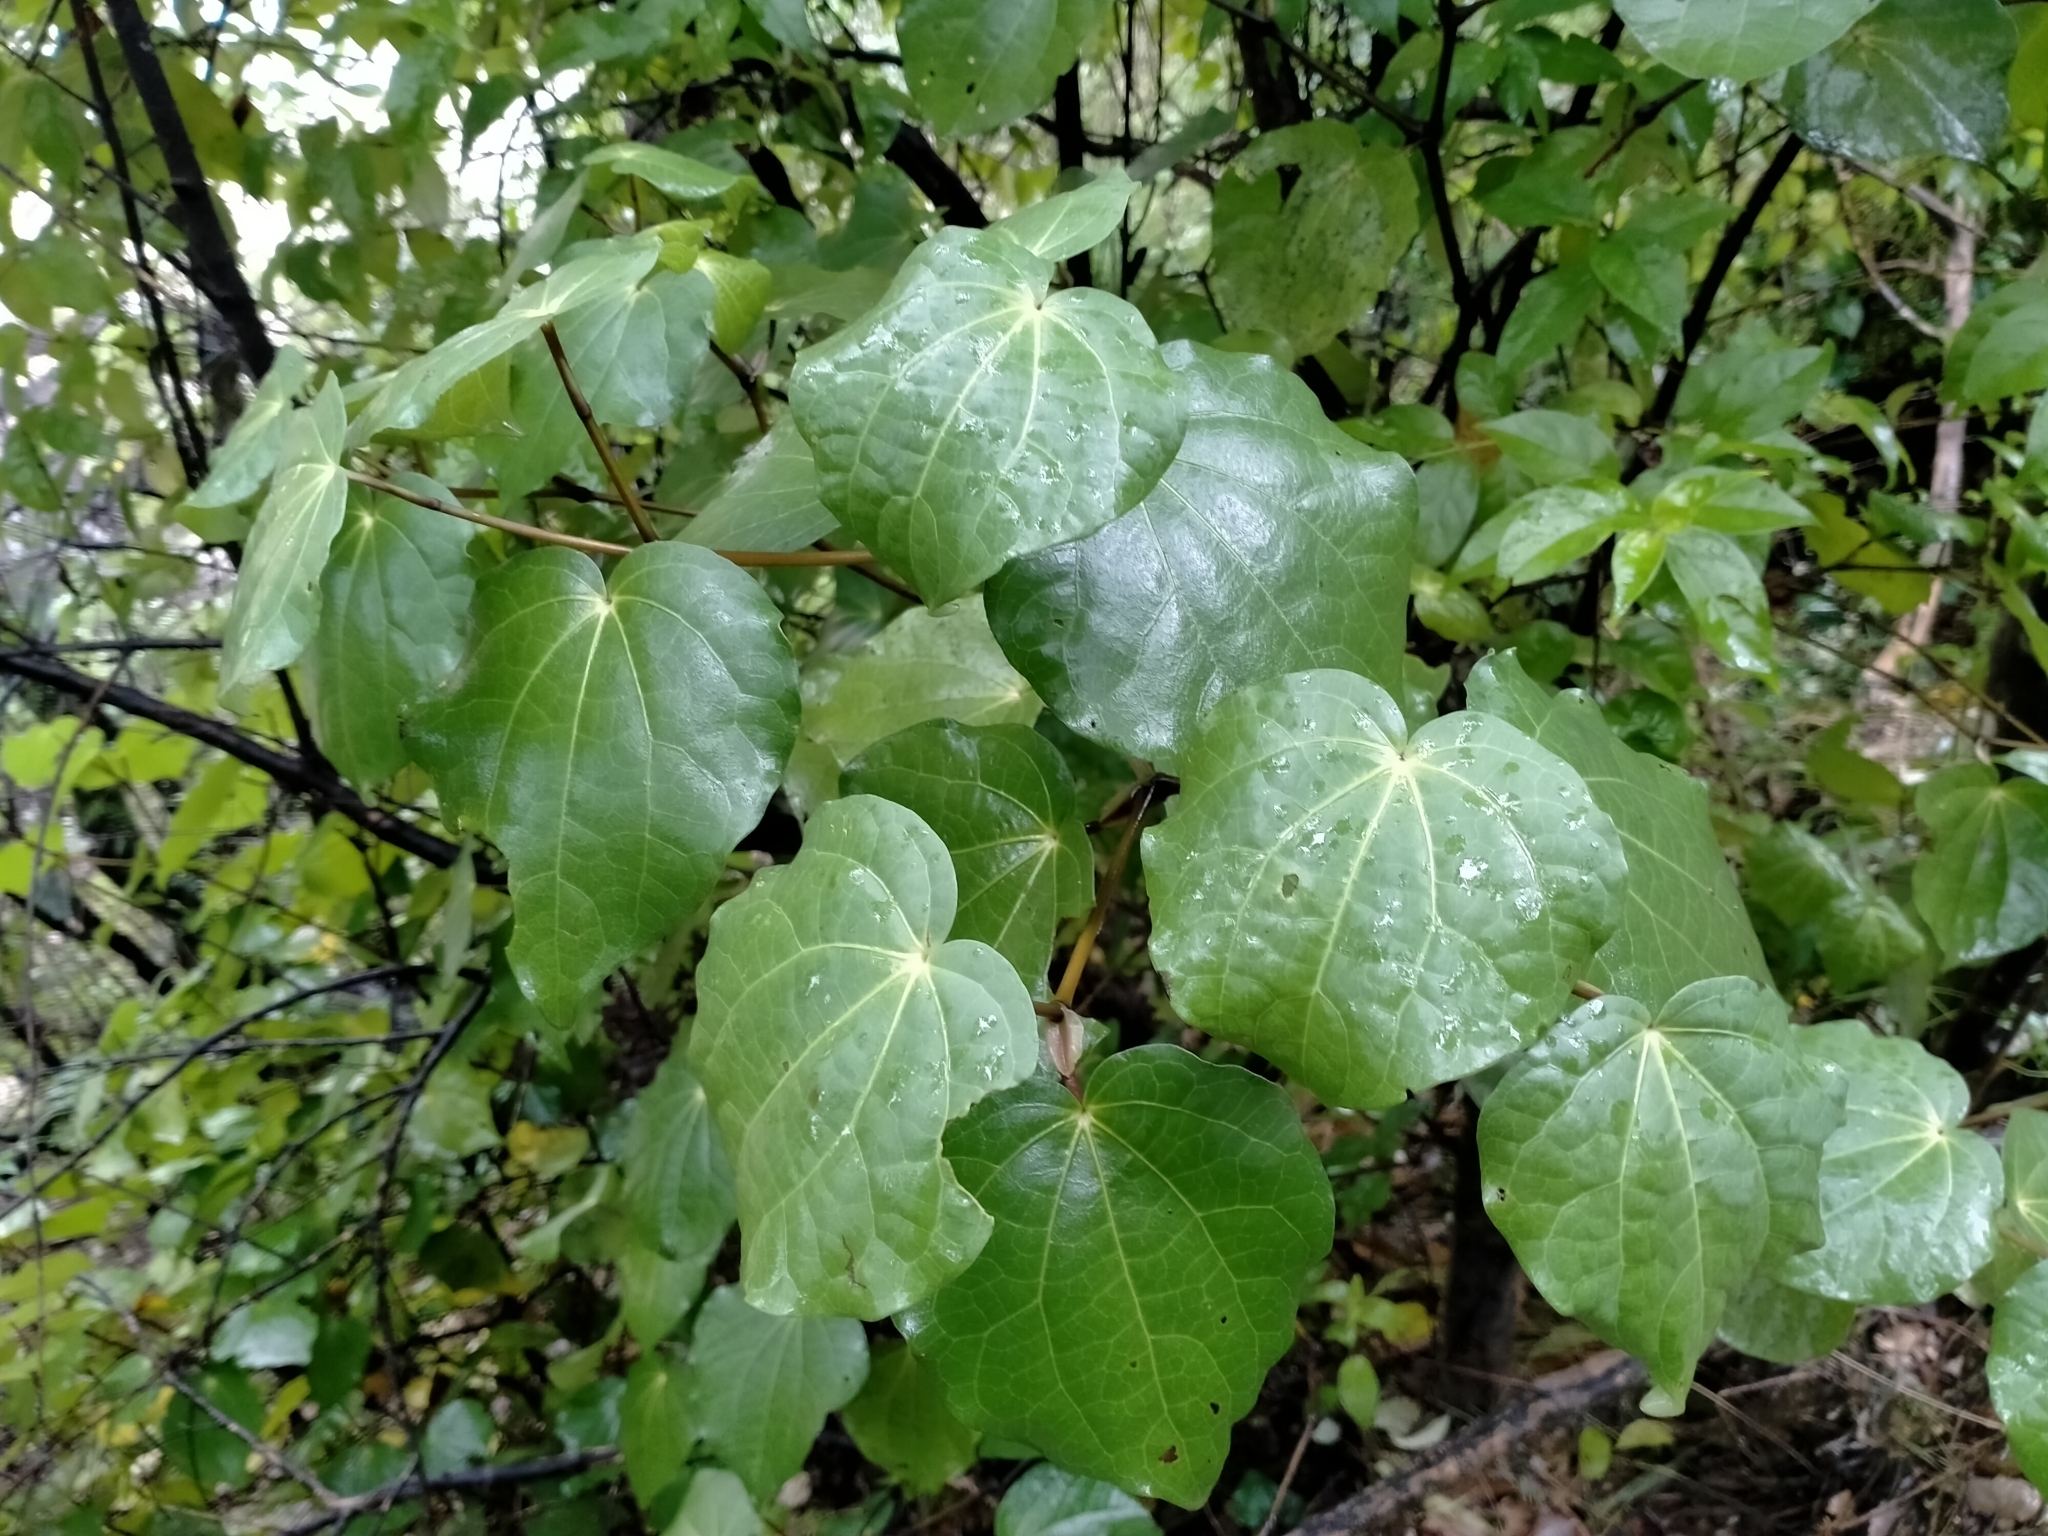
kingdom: Plantae
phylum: Tracheophyta
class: Magnoliopsida
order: Piperales
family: Piperaceae
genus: Macropiper
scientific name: Macropiper excelsum
